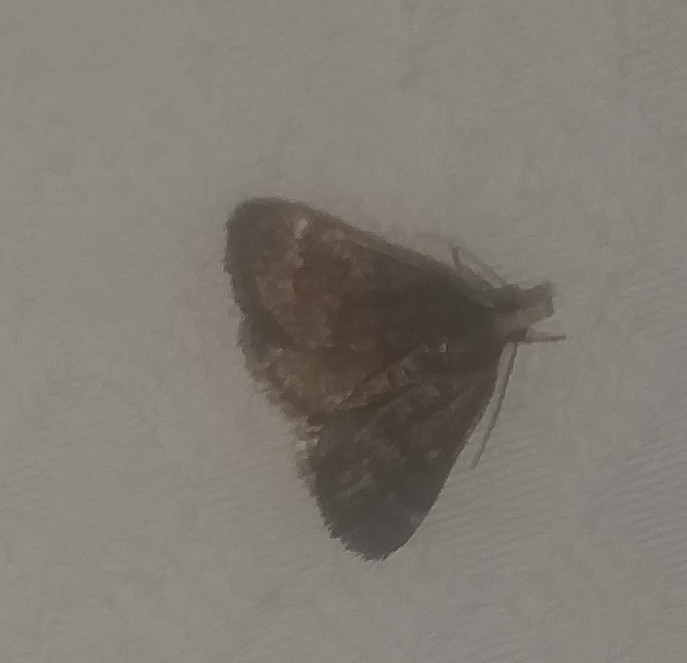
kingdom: Animalia
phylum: Arthropoda
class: Insecta
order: Lepidoptera
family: Crambidae
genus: Pyrausta
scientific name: Pyrausta merrickalis
